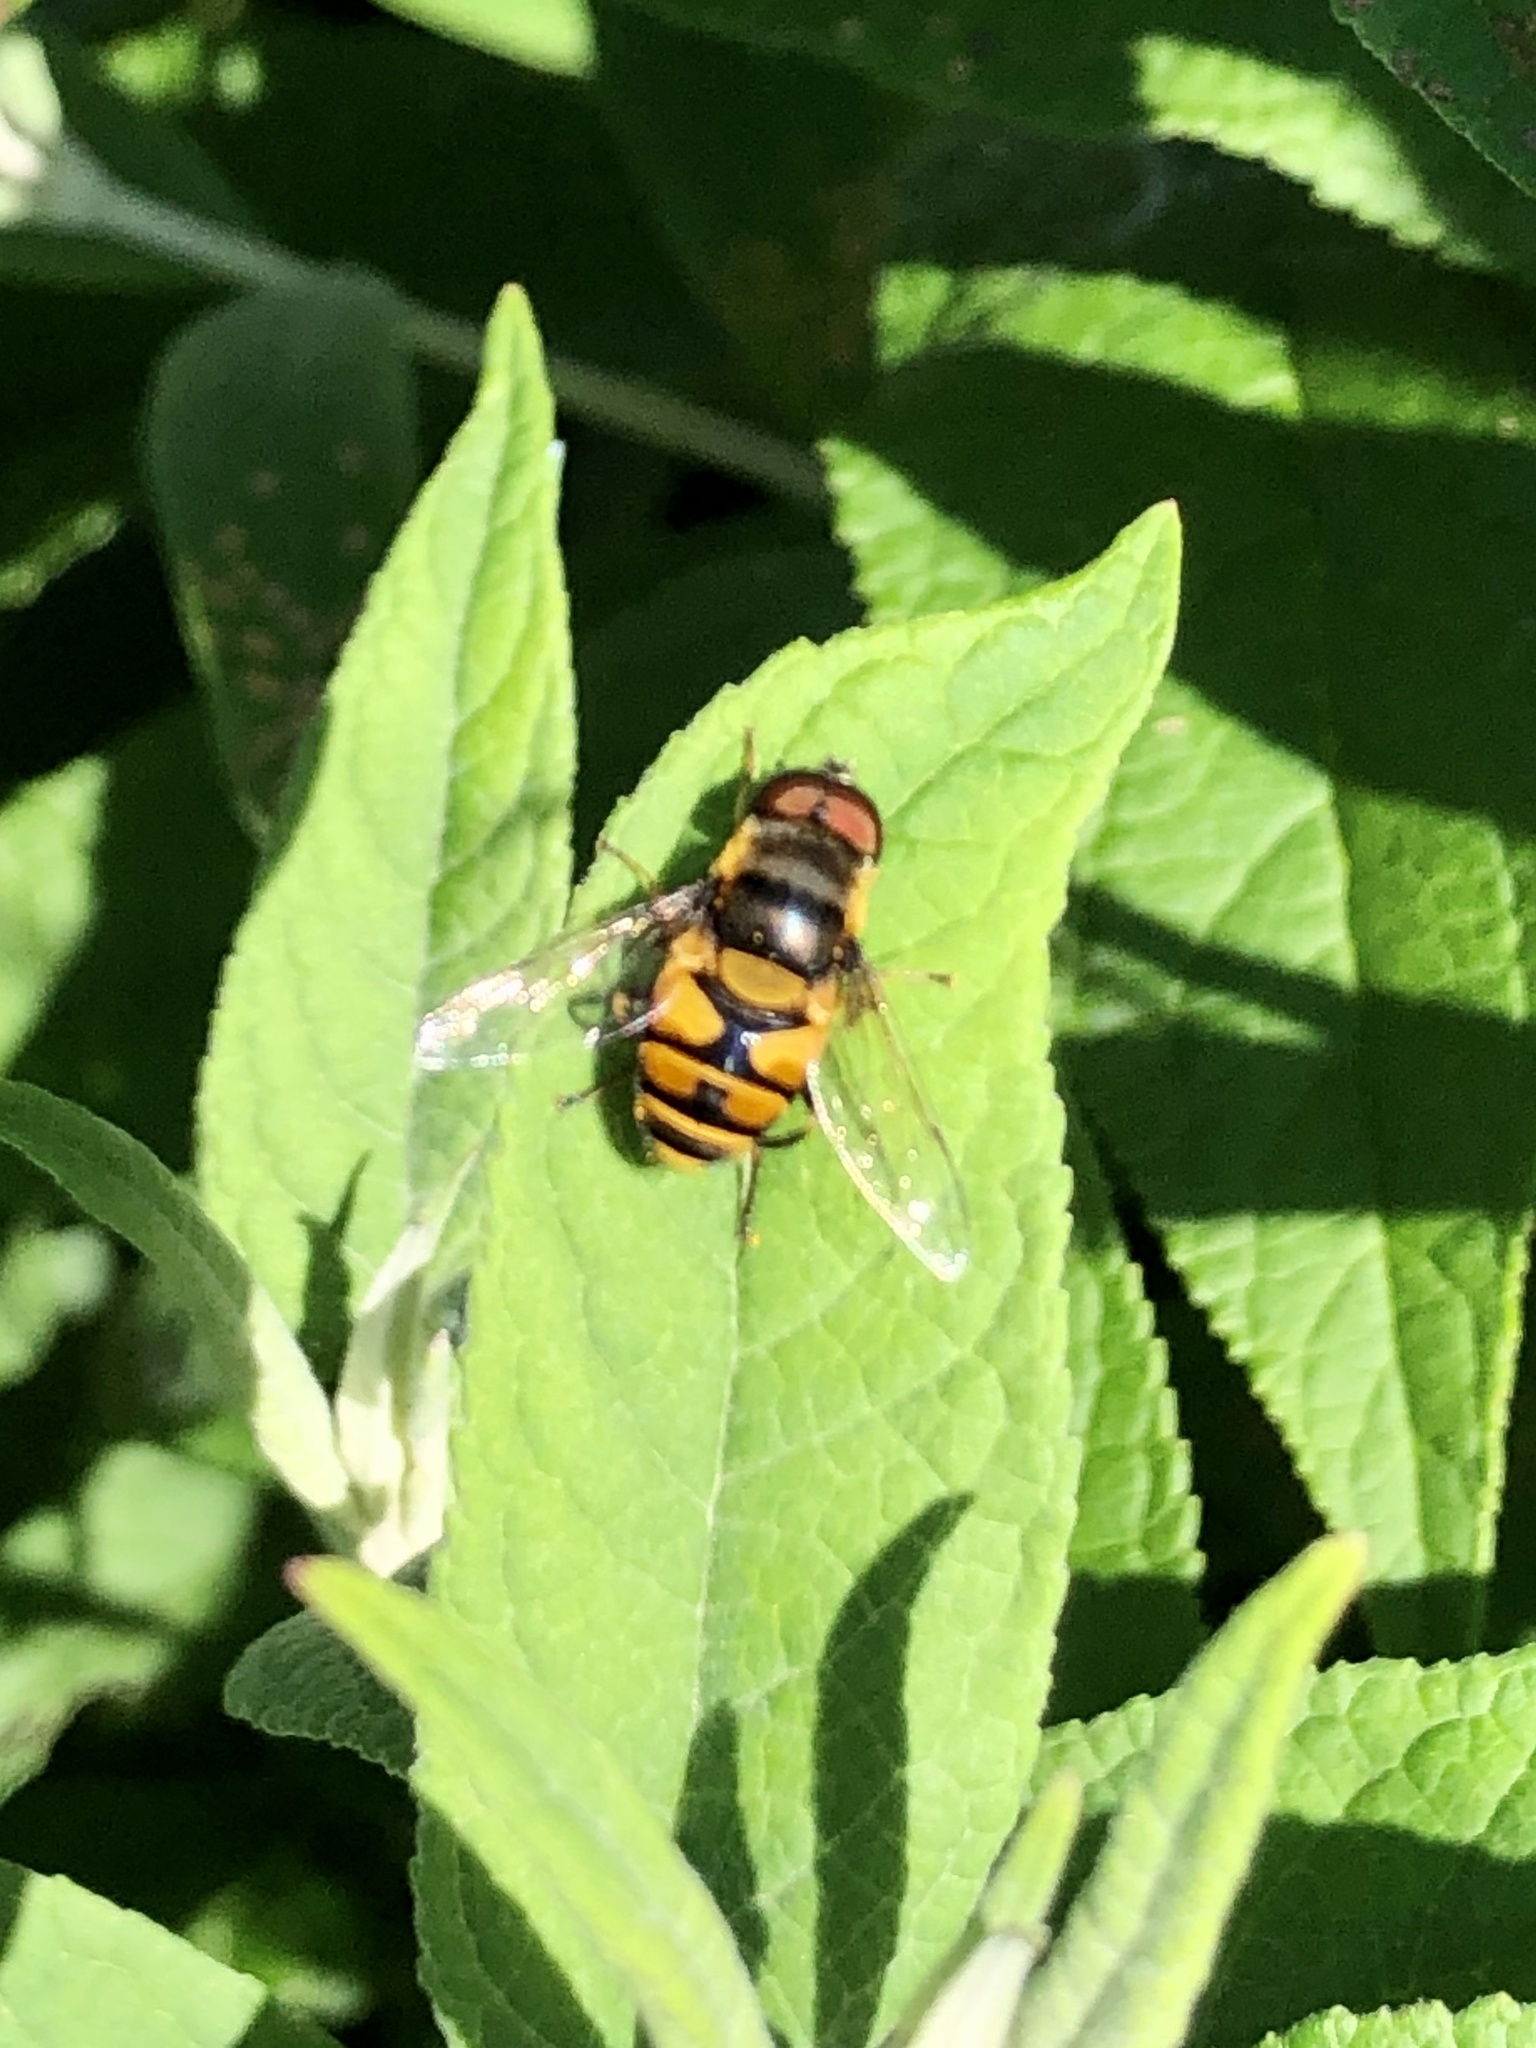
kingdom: Animalia
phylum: Arthropoda
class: Insecta
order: Diptera
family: Syrphidae
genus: Eristalis
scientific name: Eristalis transversa
